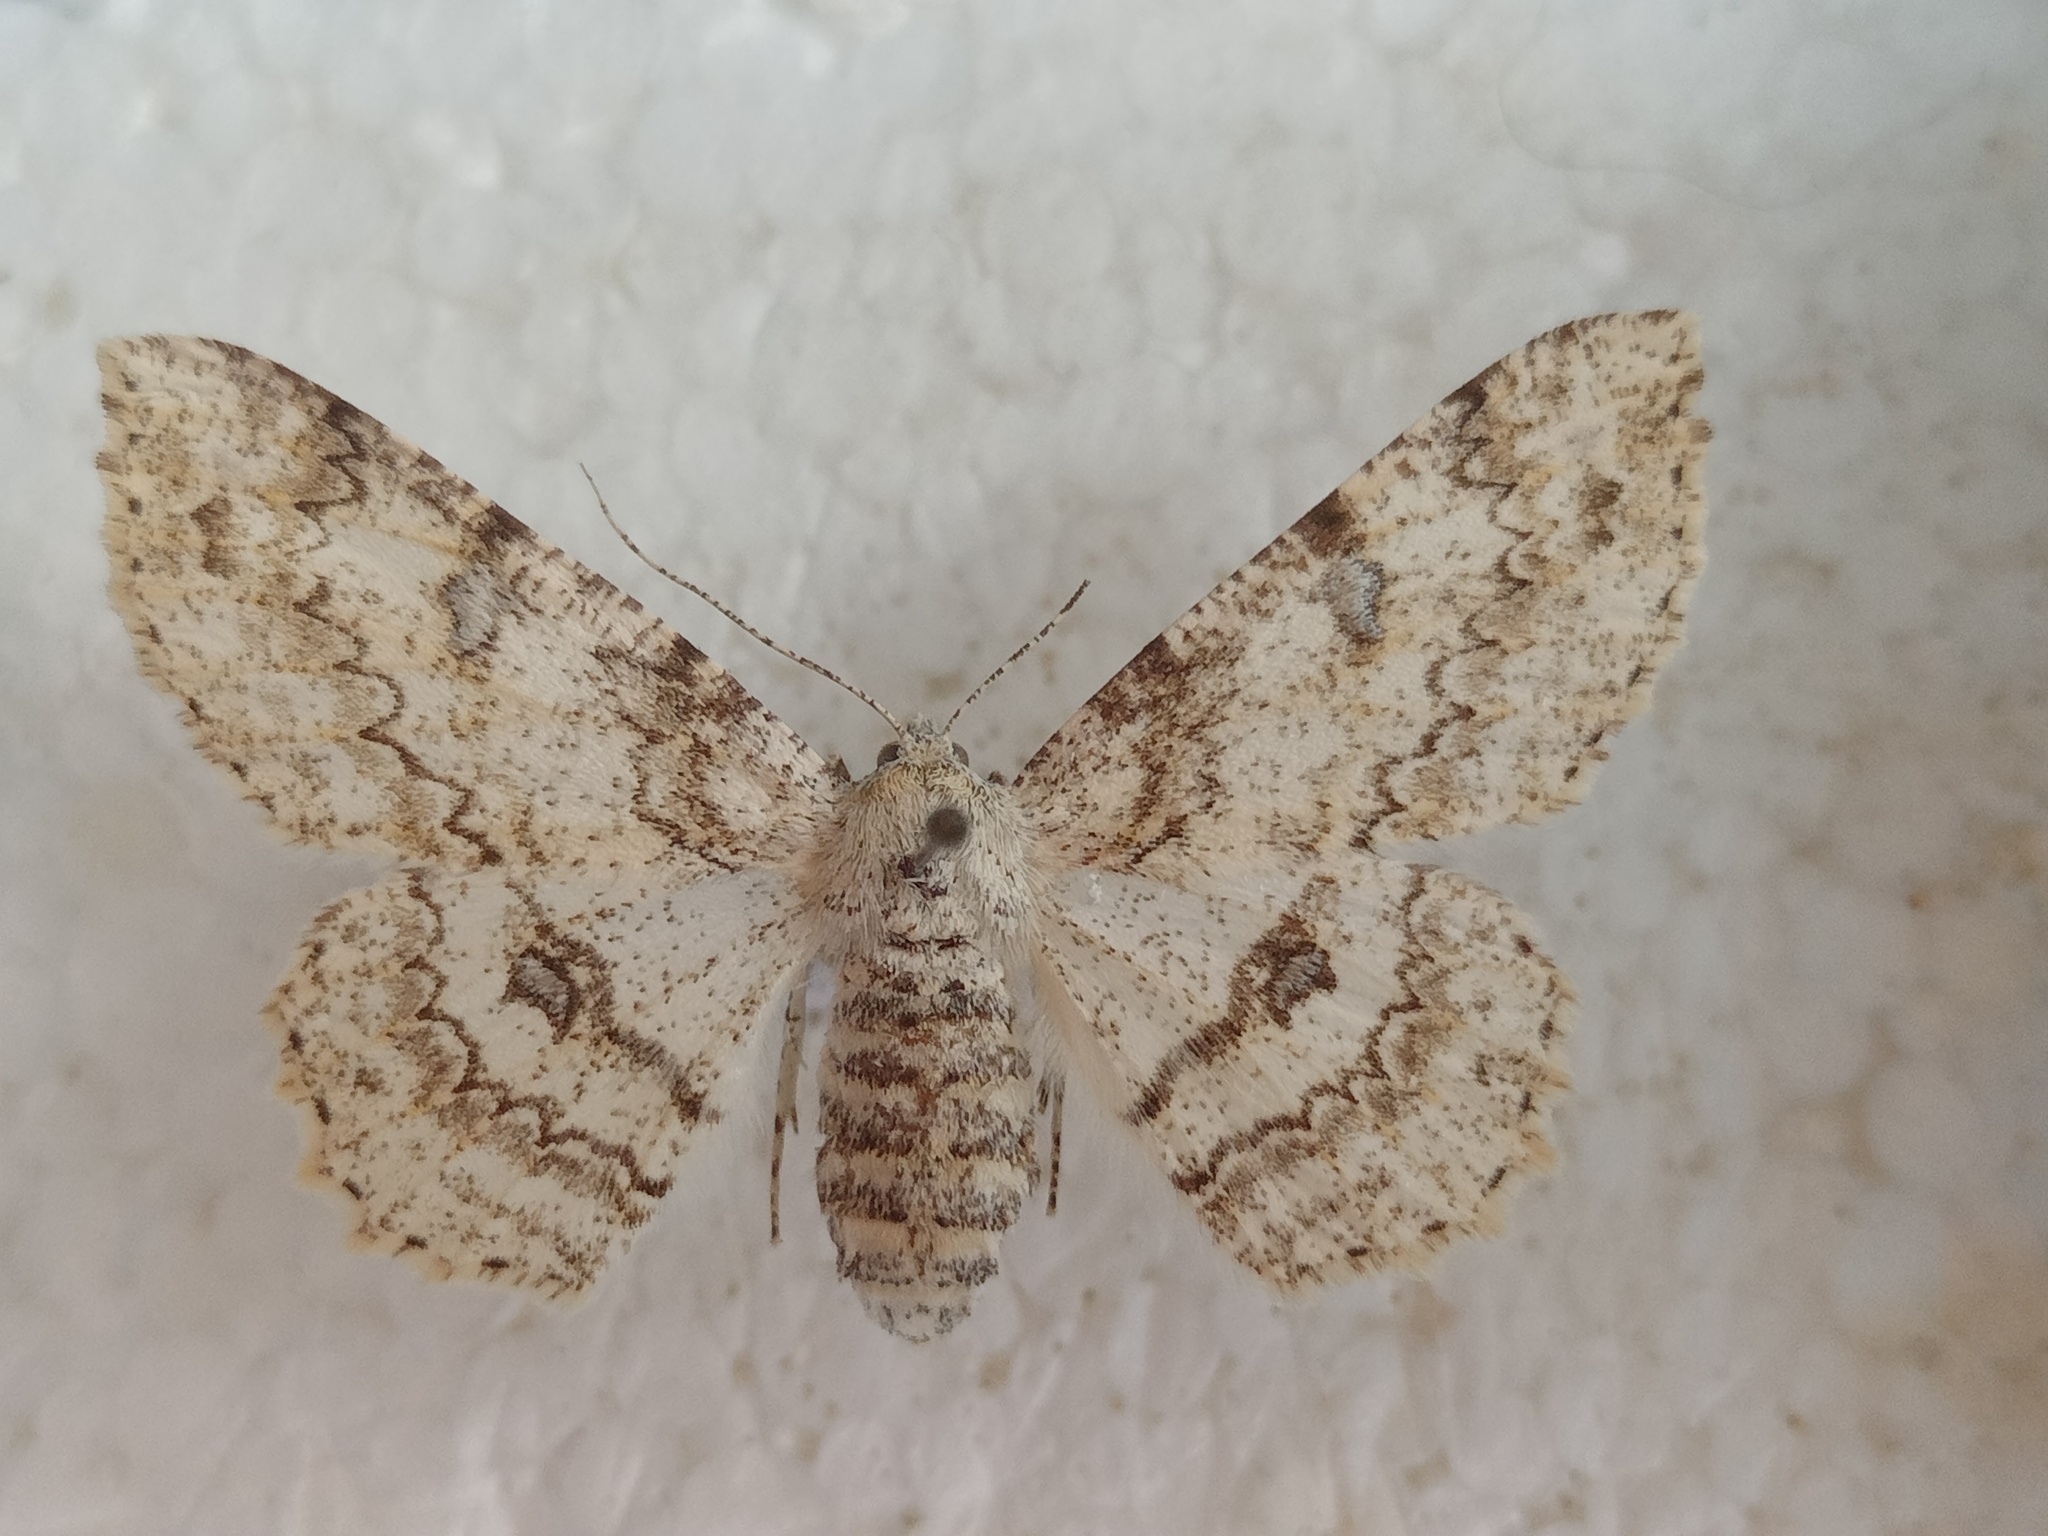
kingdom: Animalia
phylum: Arthropoda
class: Insecta
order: Lepidoptera
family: Geometridae
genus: Ascotis
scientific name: Ascotis selenaria
